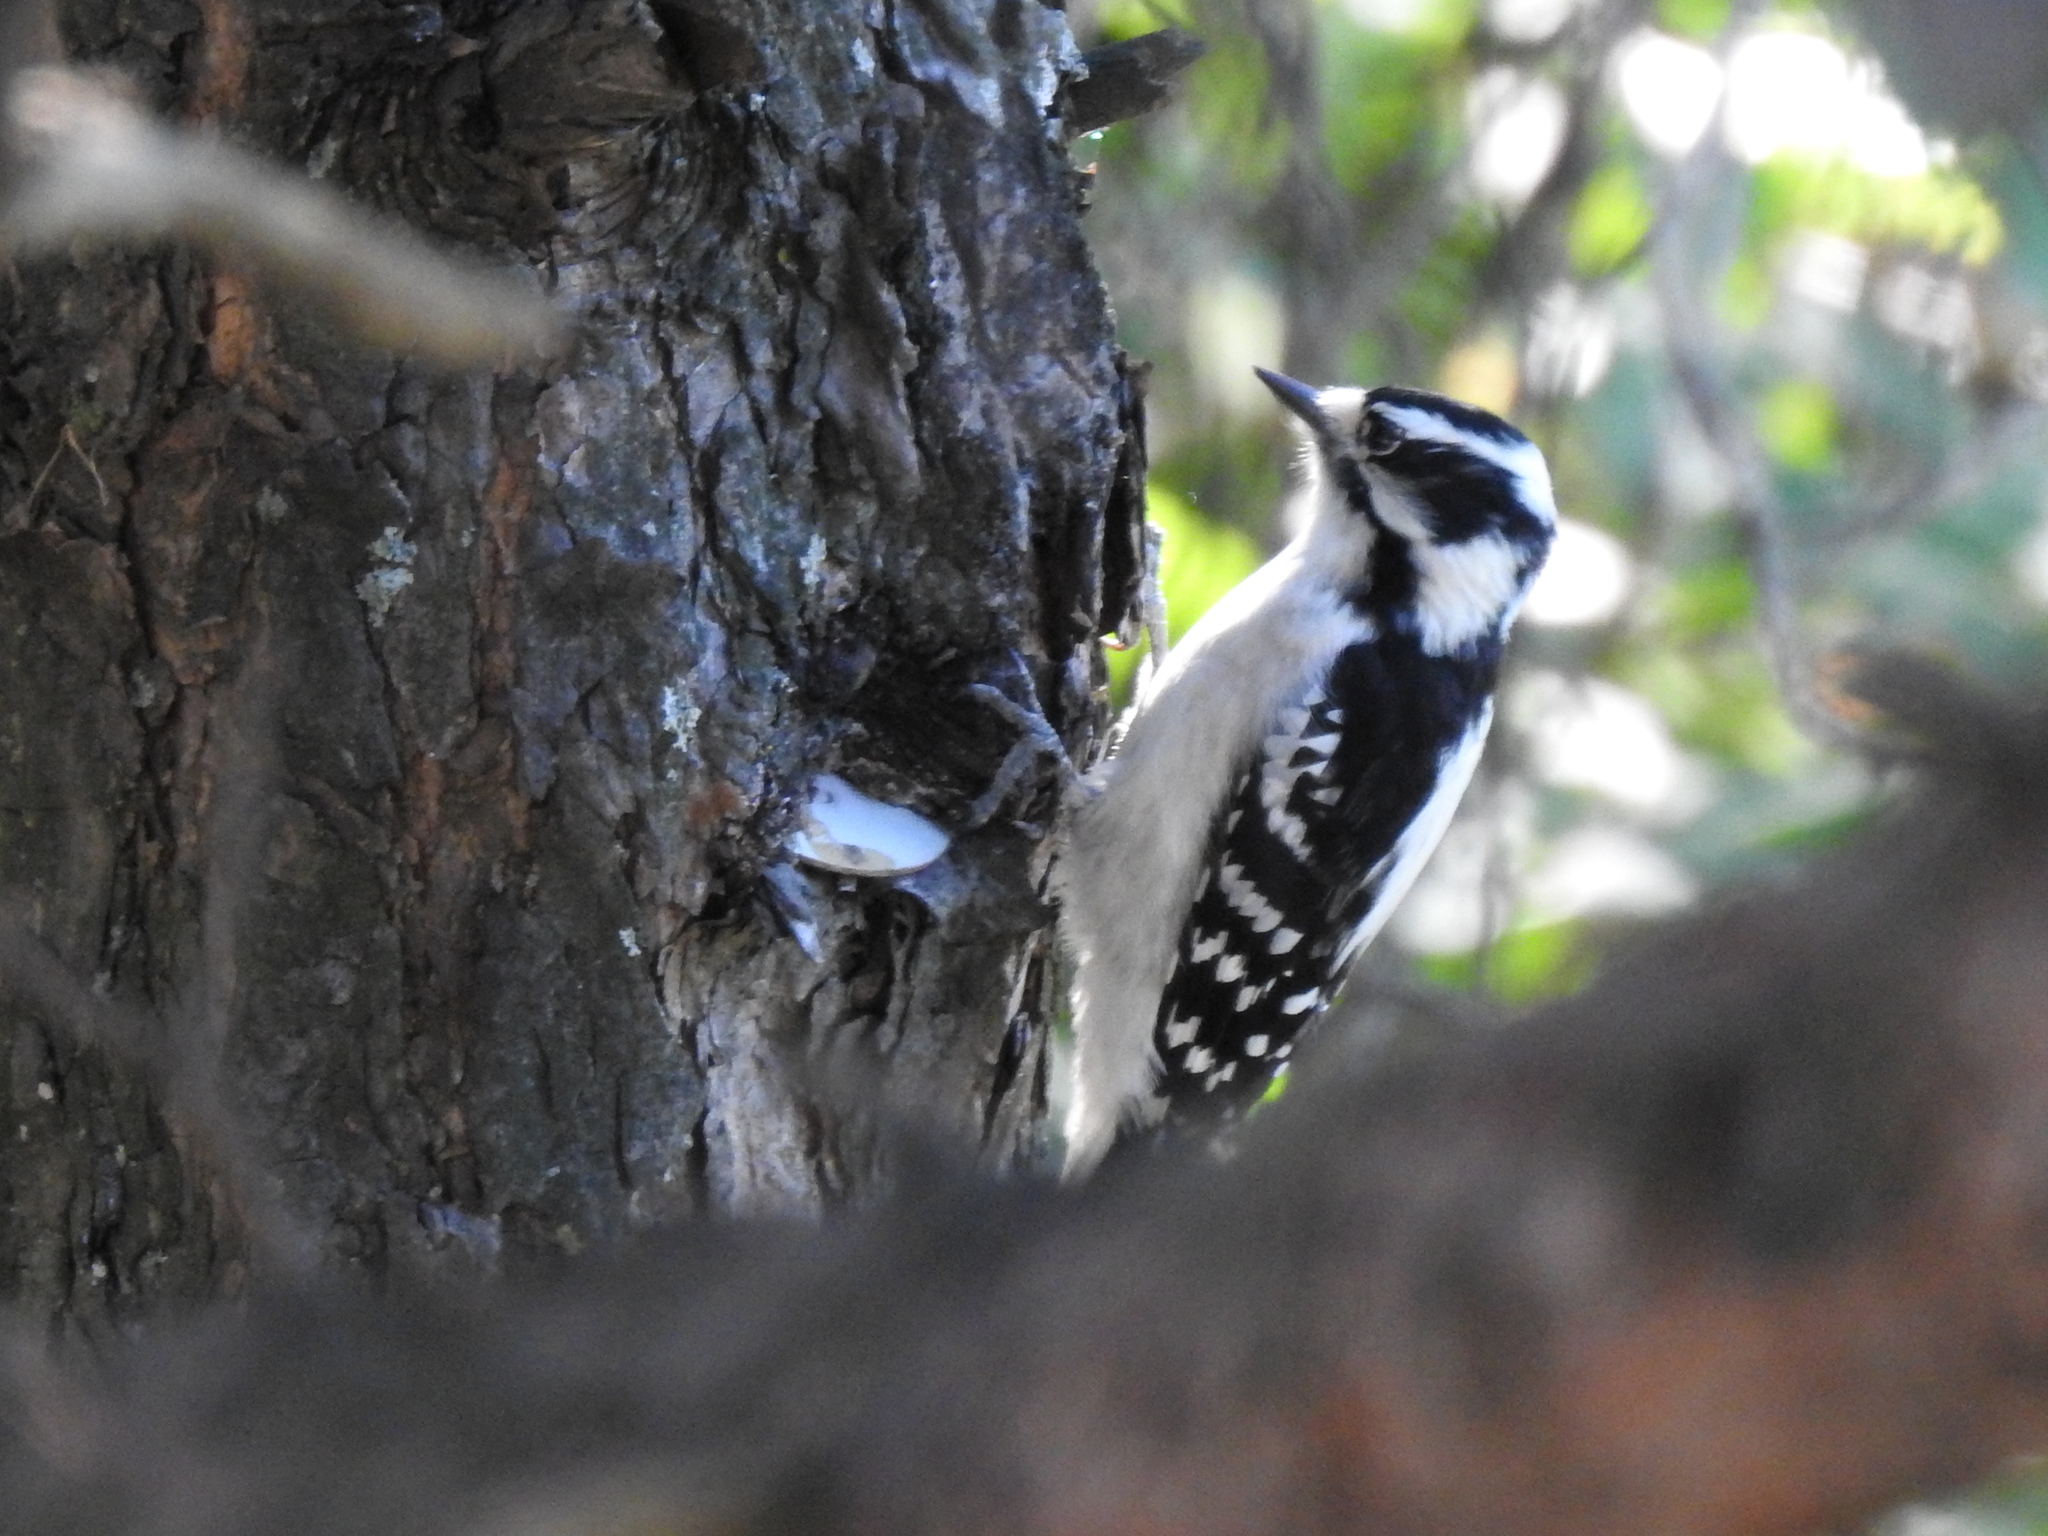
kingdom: Animalia
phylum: Chordata
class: Aves
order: Piciformes
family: Picidae
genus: Dryobates
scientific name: Dryobates pubescens
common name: Downy woodpecker
